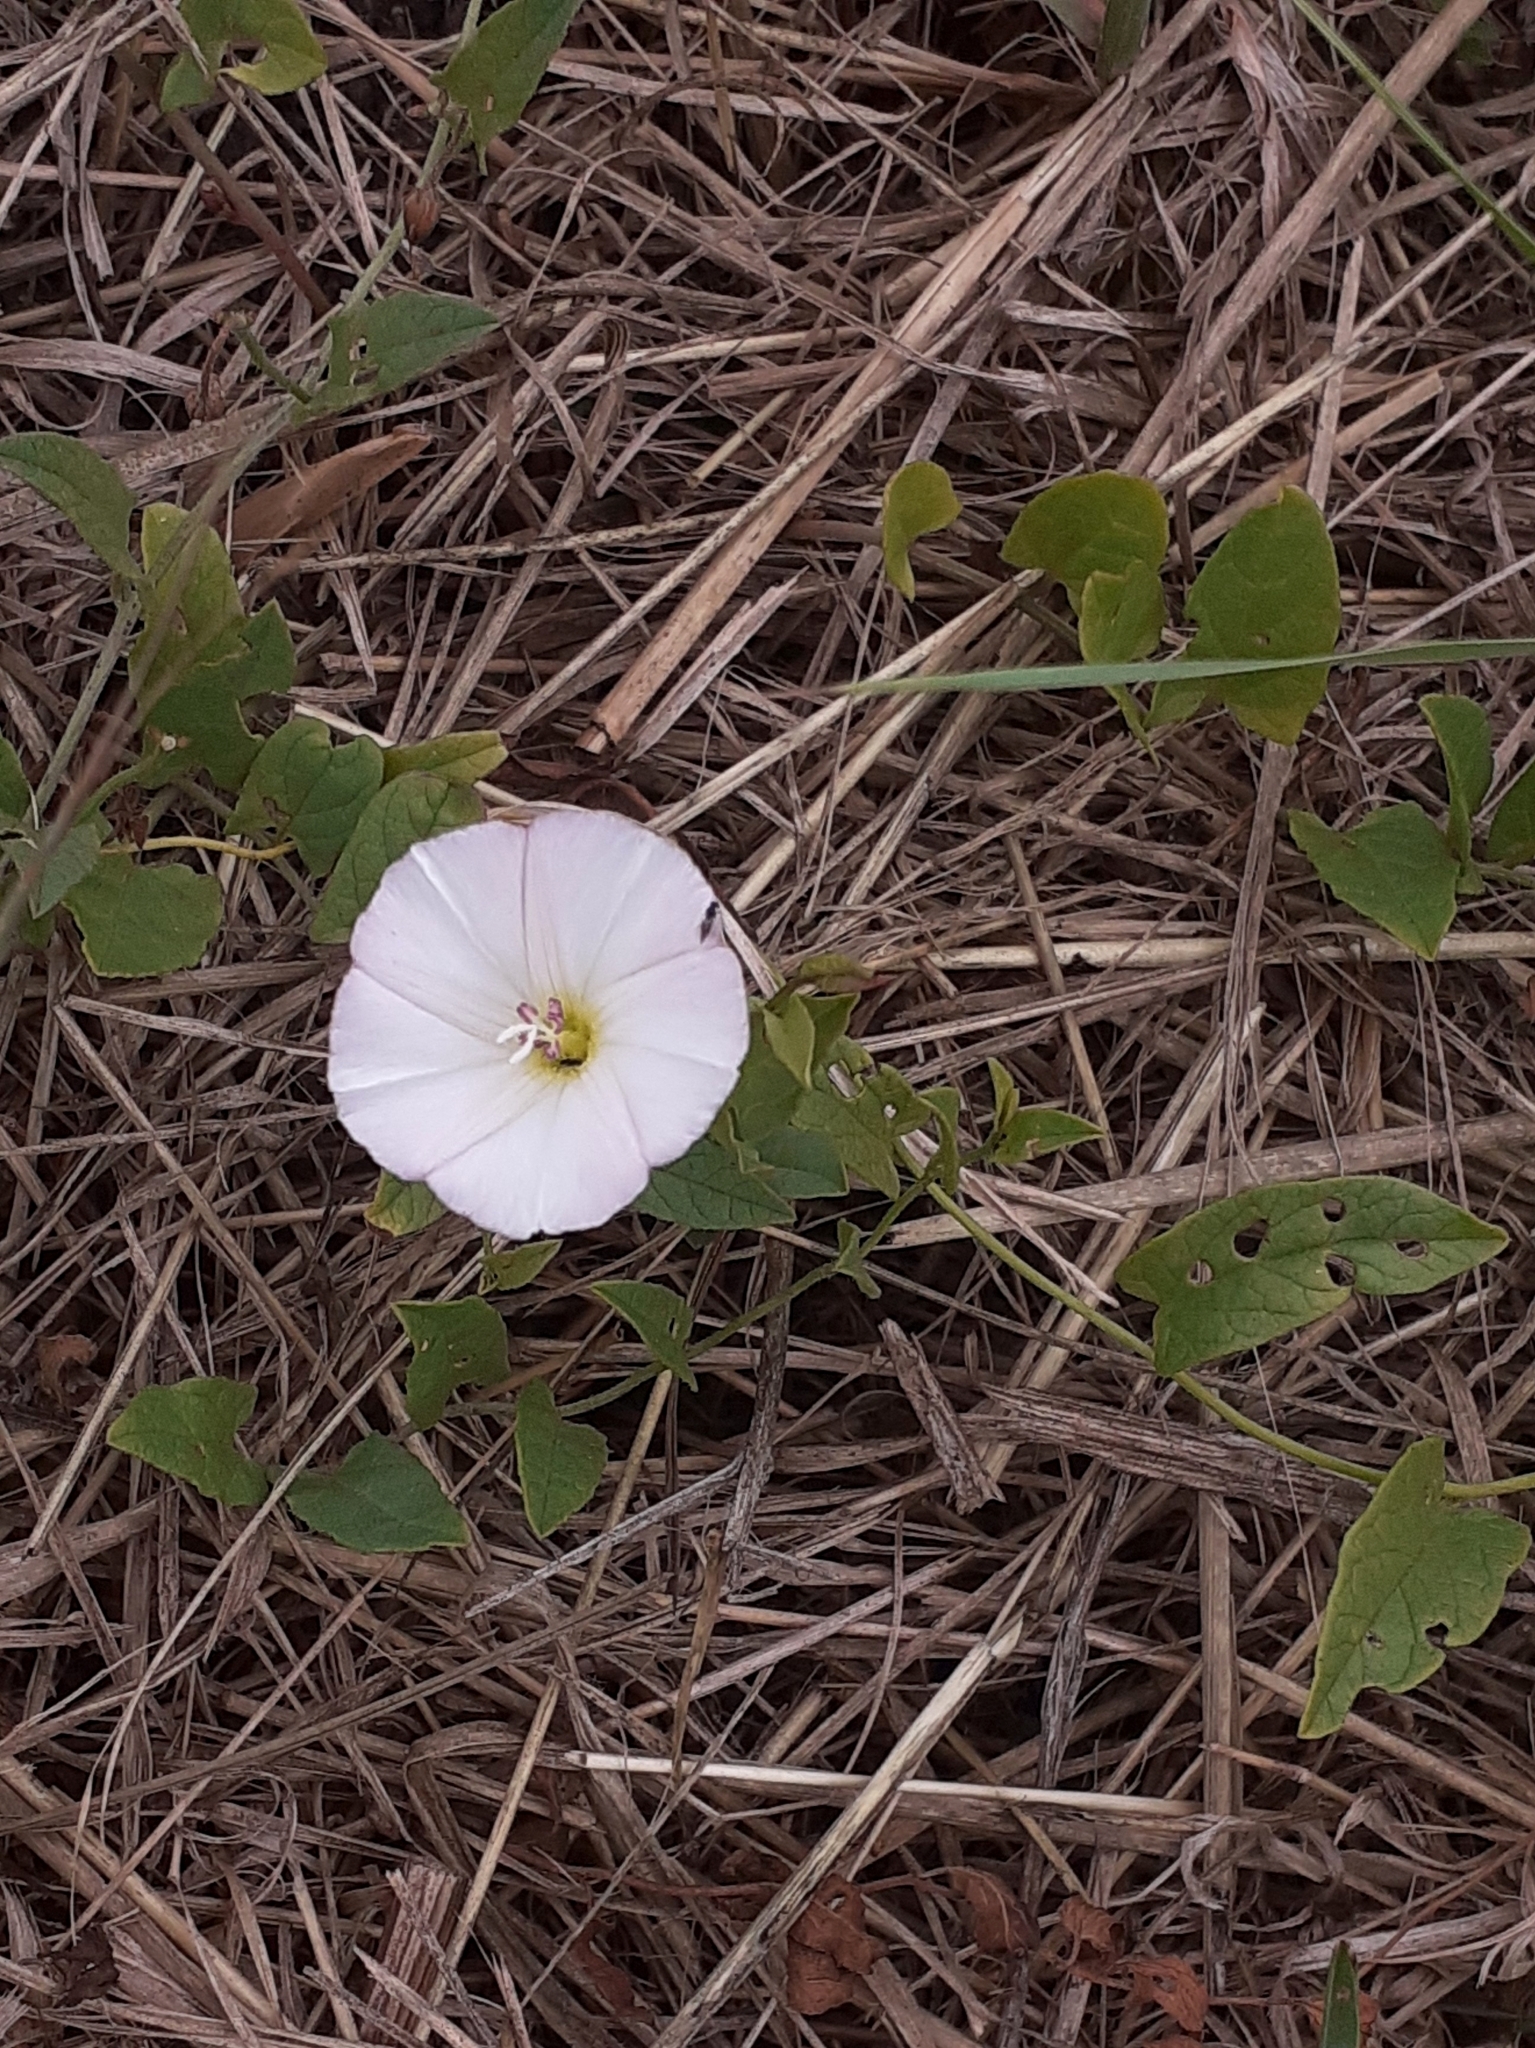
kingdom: Plantae
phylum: Tracheophyta
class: Magnoliopsida
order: Solanales
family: Convolvulaceae
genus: Convolvulus
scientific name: Convolvulus arvensis
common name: Field bindweed
